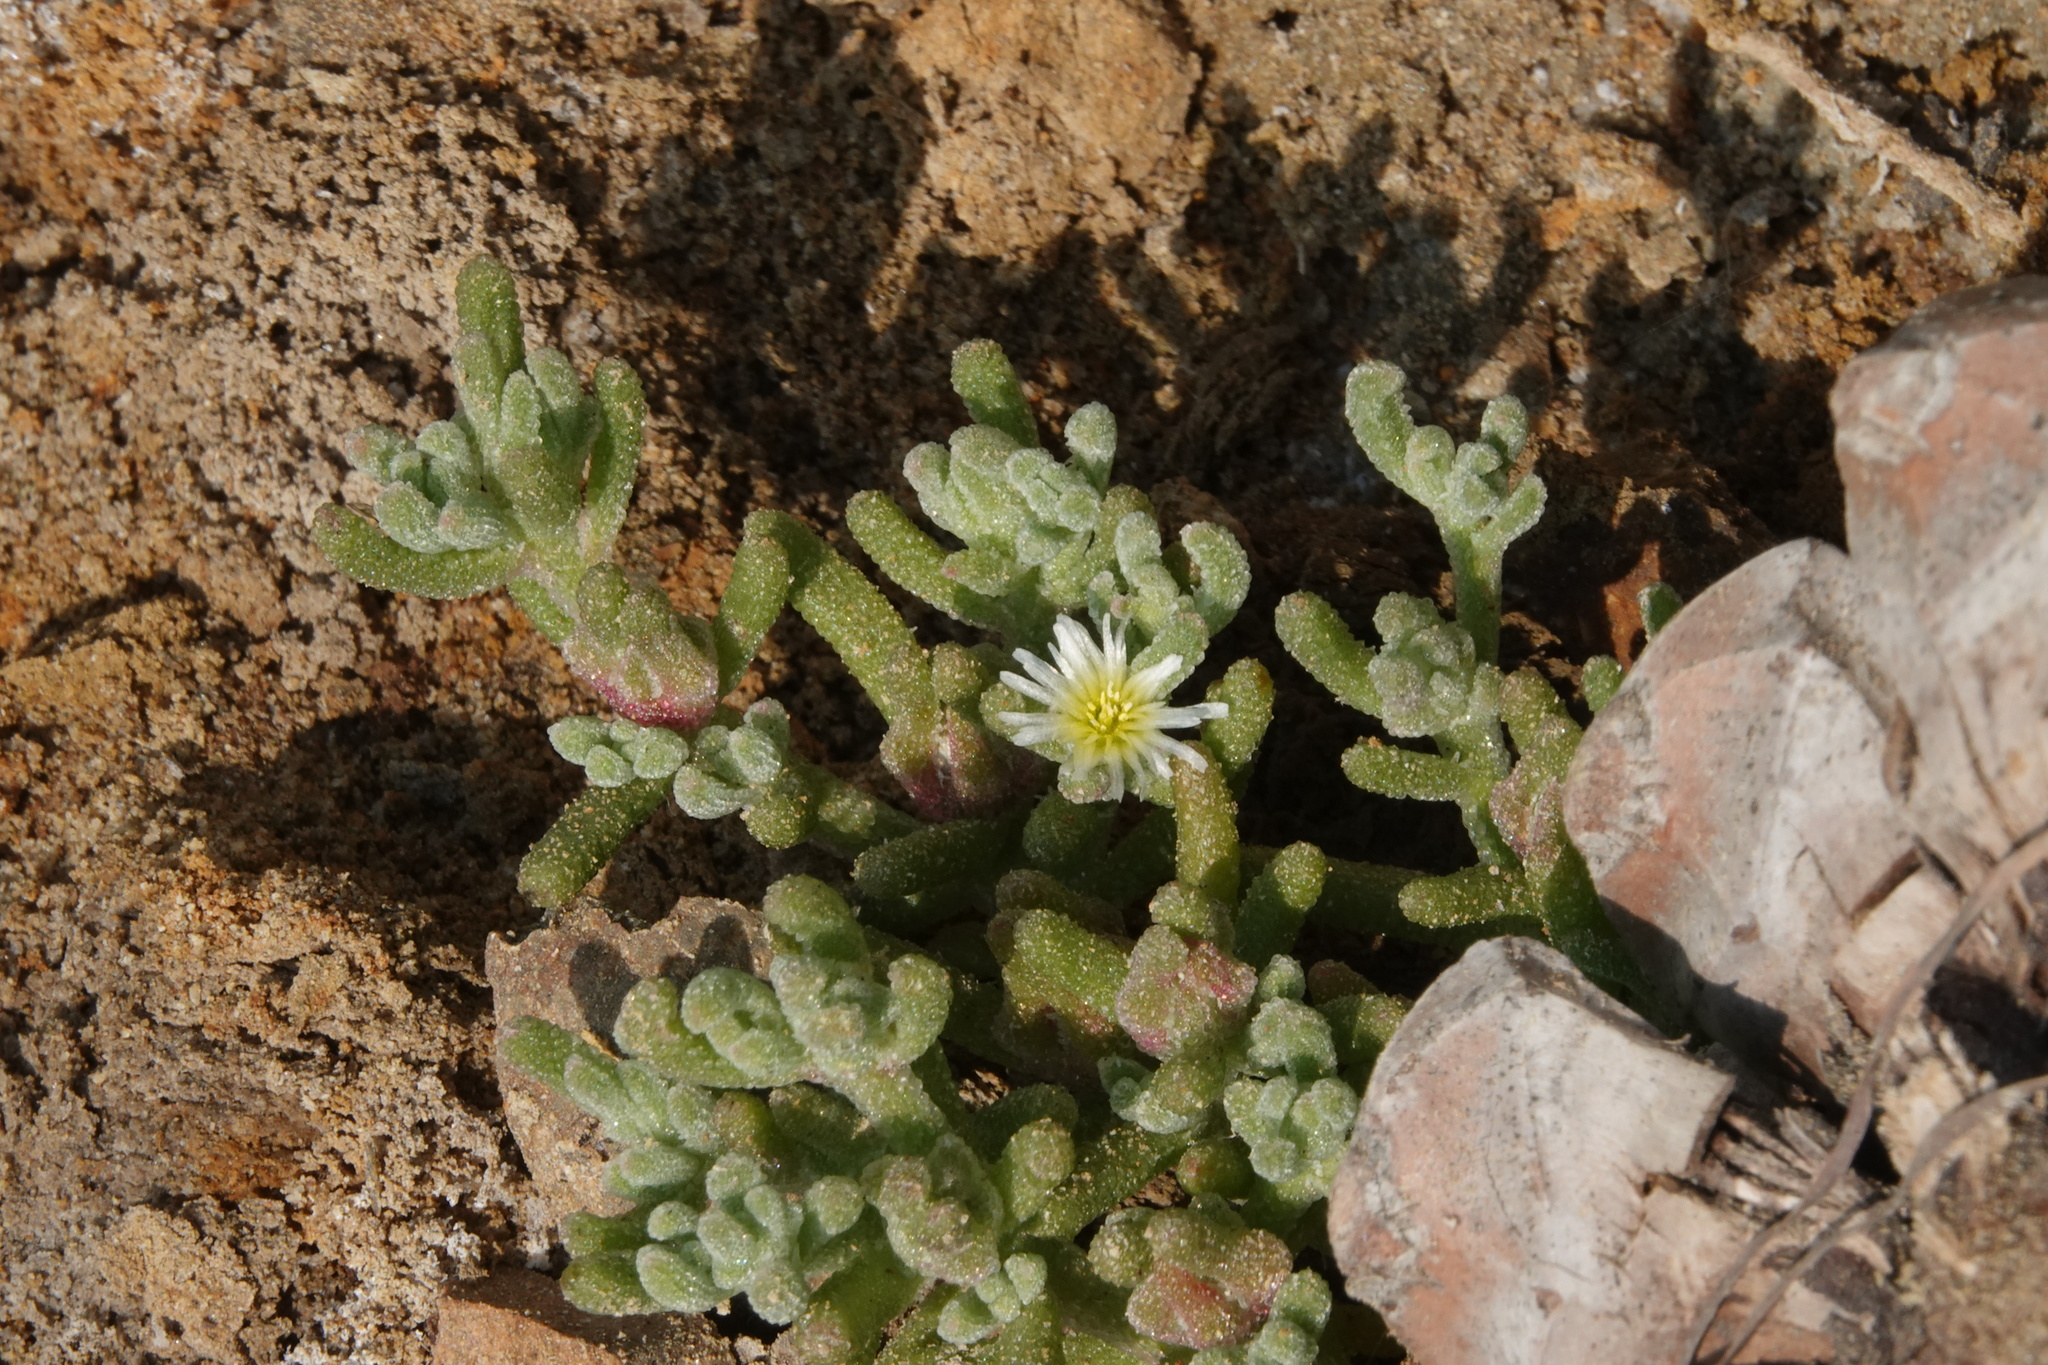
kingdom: Plantae
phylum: Tracheophyta
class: Magnoliopsida
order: Caryophyllales
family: Aizoaceae
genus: Mesembryanthemum
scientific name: Mesembryanthemum nodiflorum
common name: Slenderleaf iceplant
